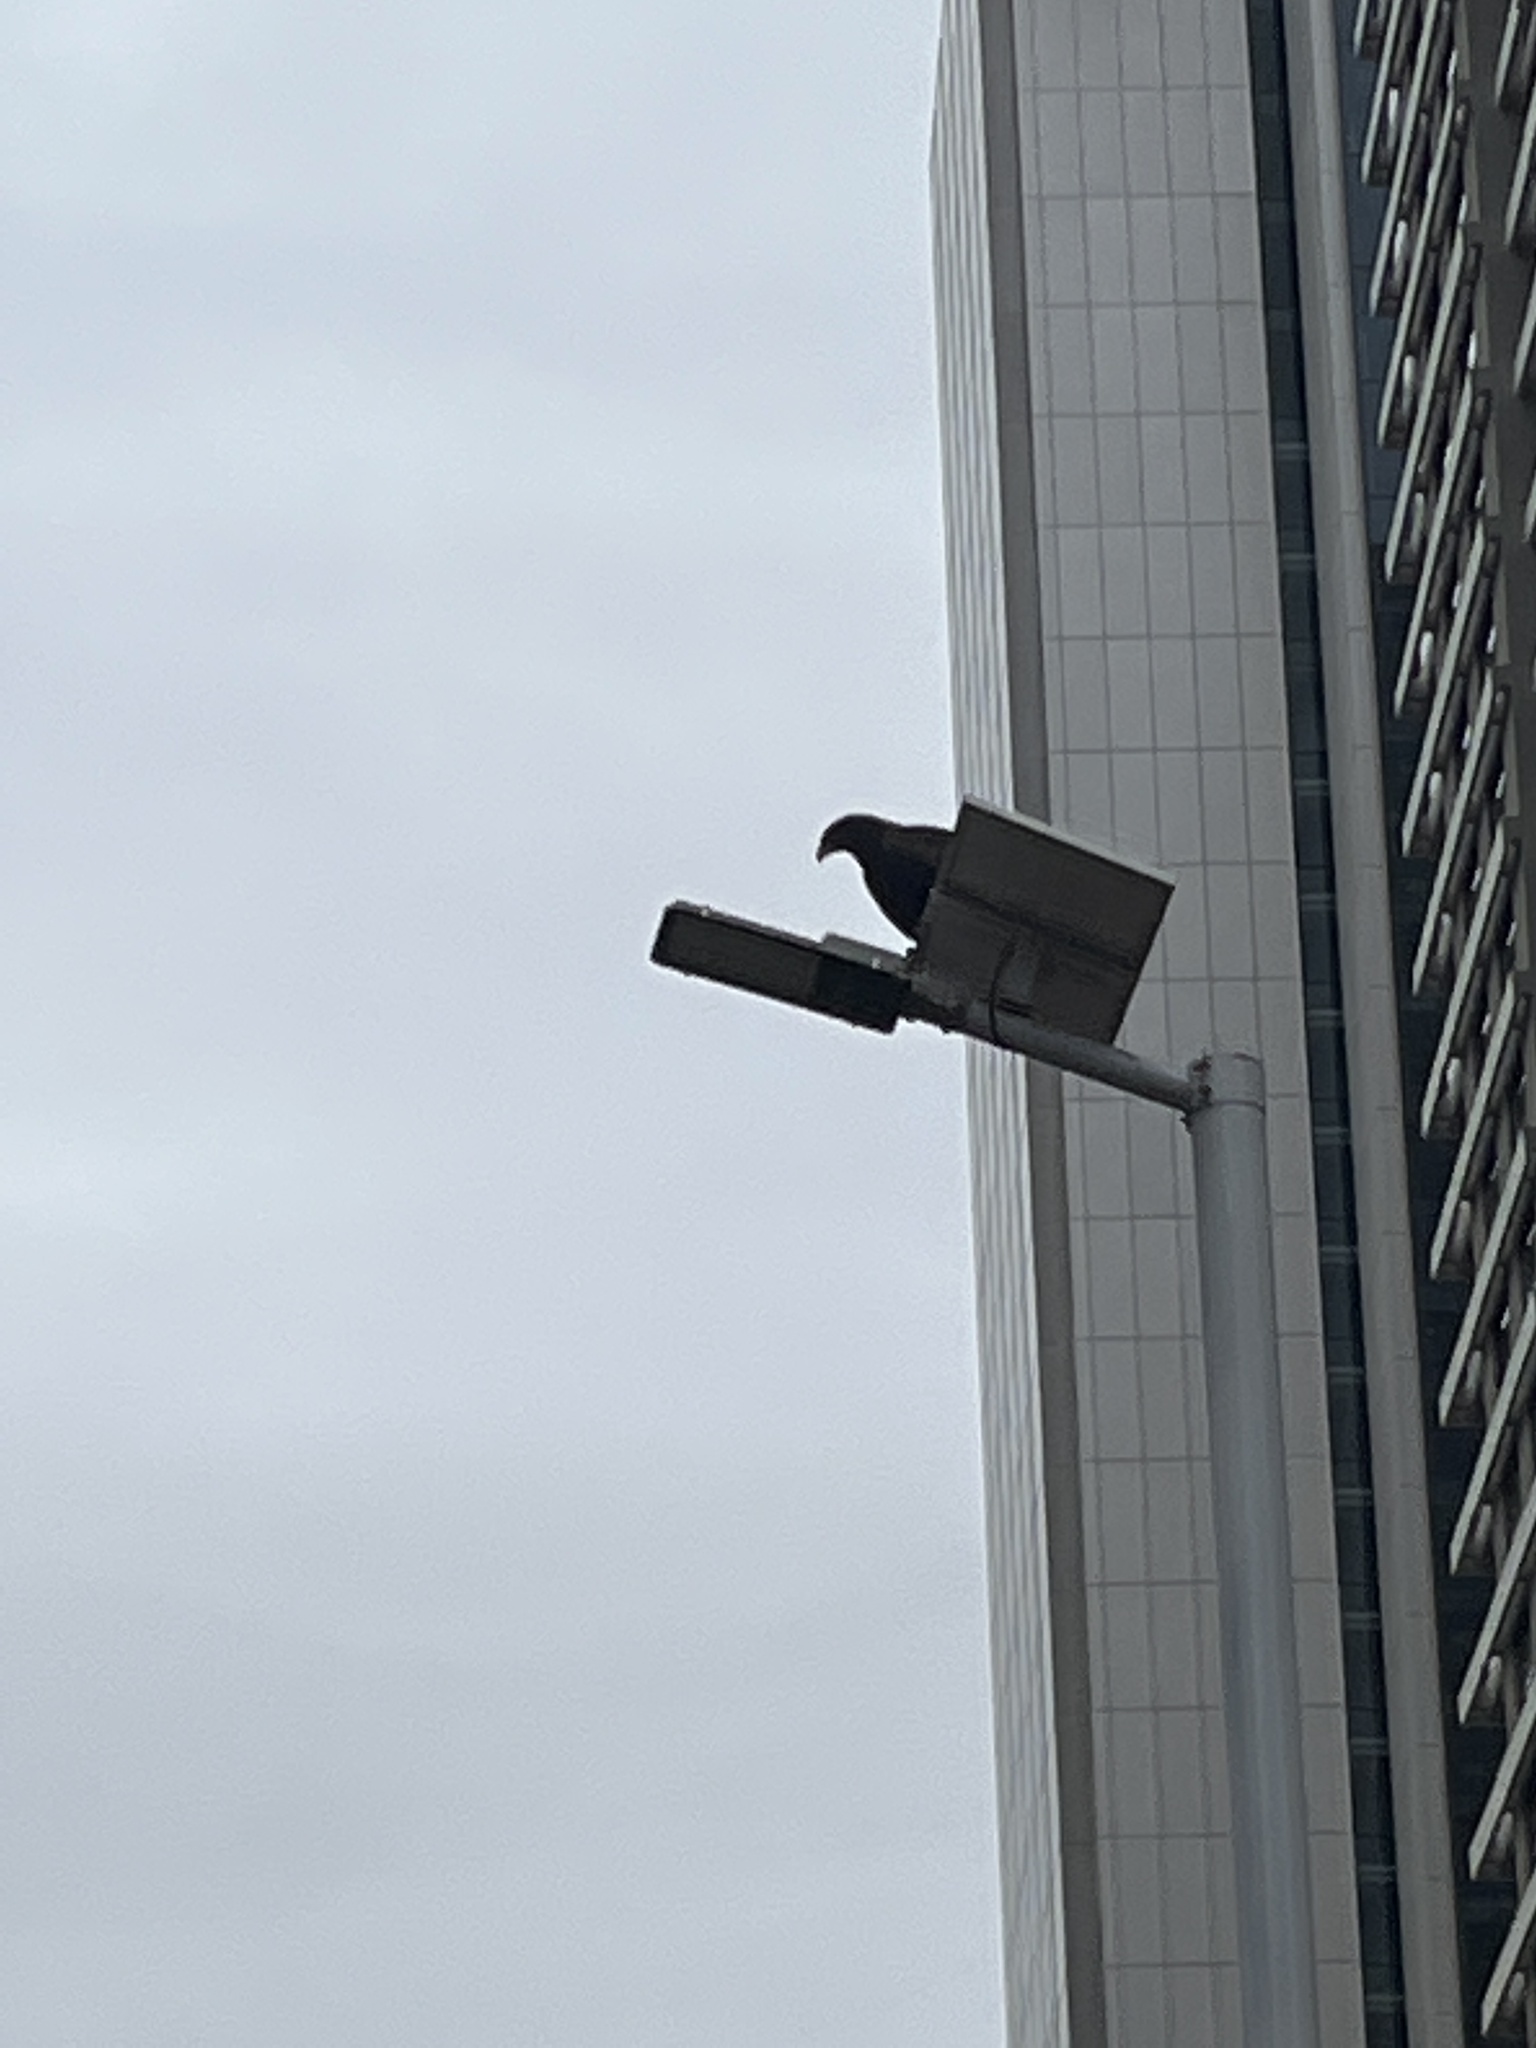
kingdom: Animalia
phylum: Chordata
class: Aves
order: Accipitriformes
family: Accipitridae
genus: Milvus
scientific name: Milvus migrans
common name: Black kite
